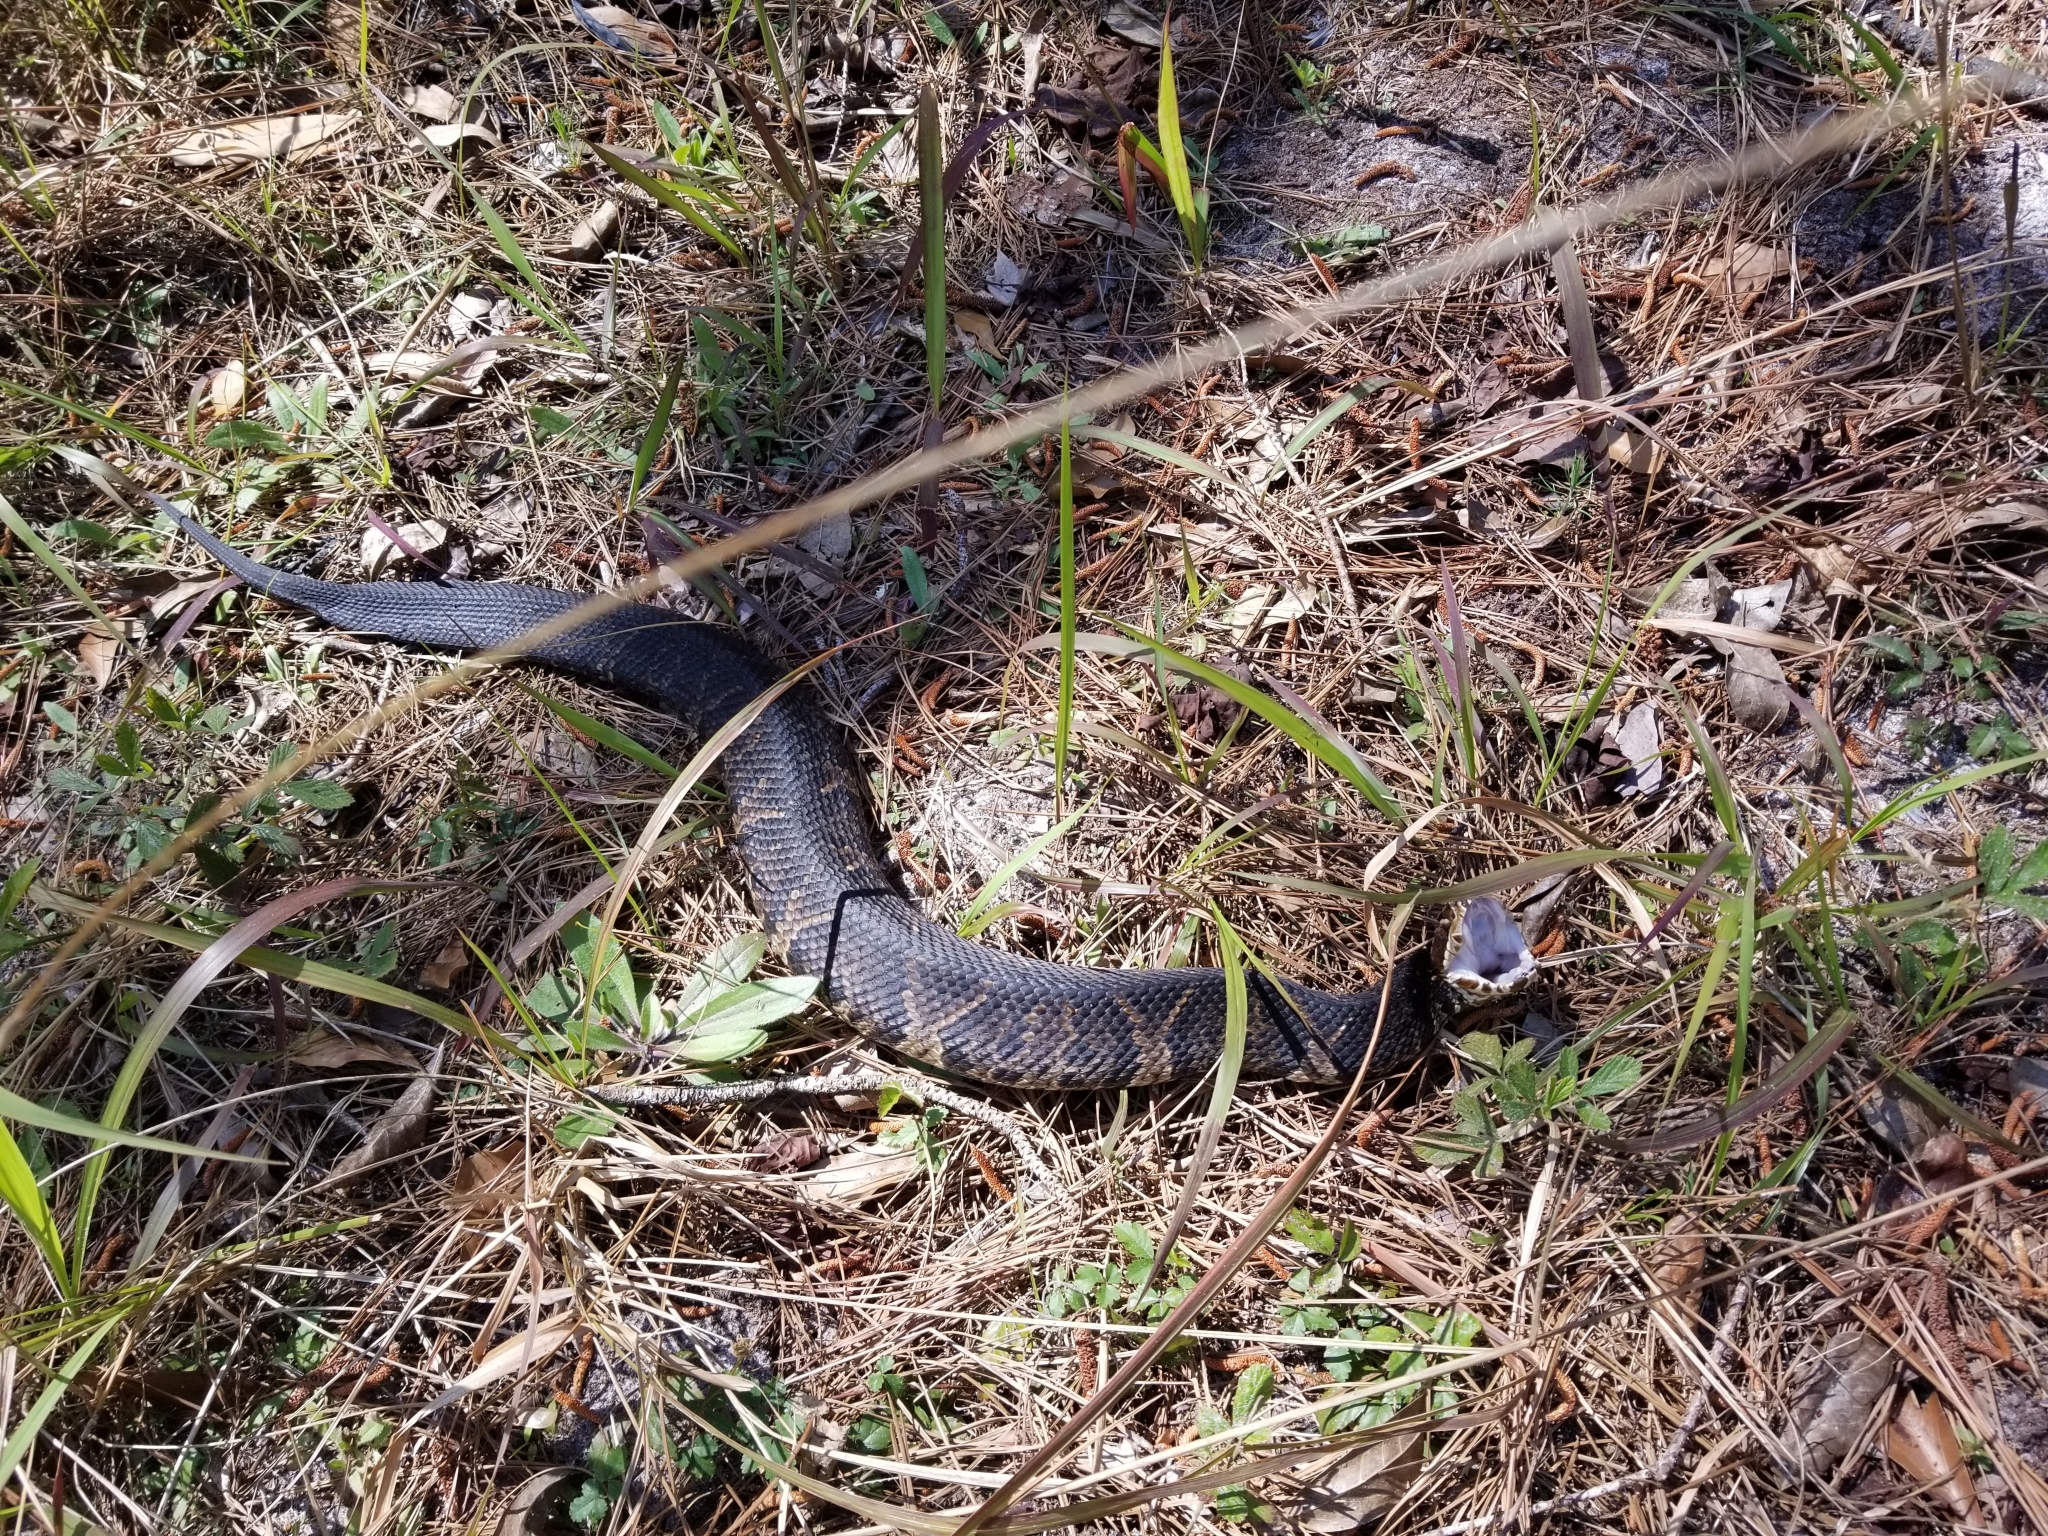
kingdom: Animalia
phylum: Chordata
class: Squamata
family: Viperidae
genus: Agkistrodon
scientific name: Agkistrodon conanti
